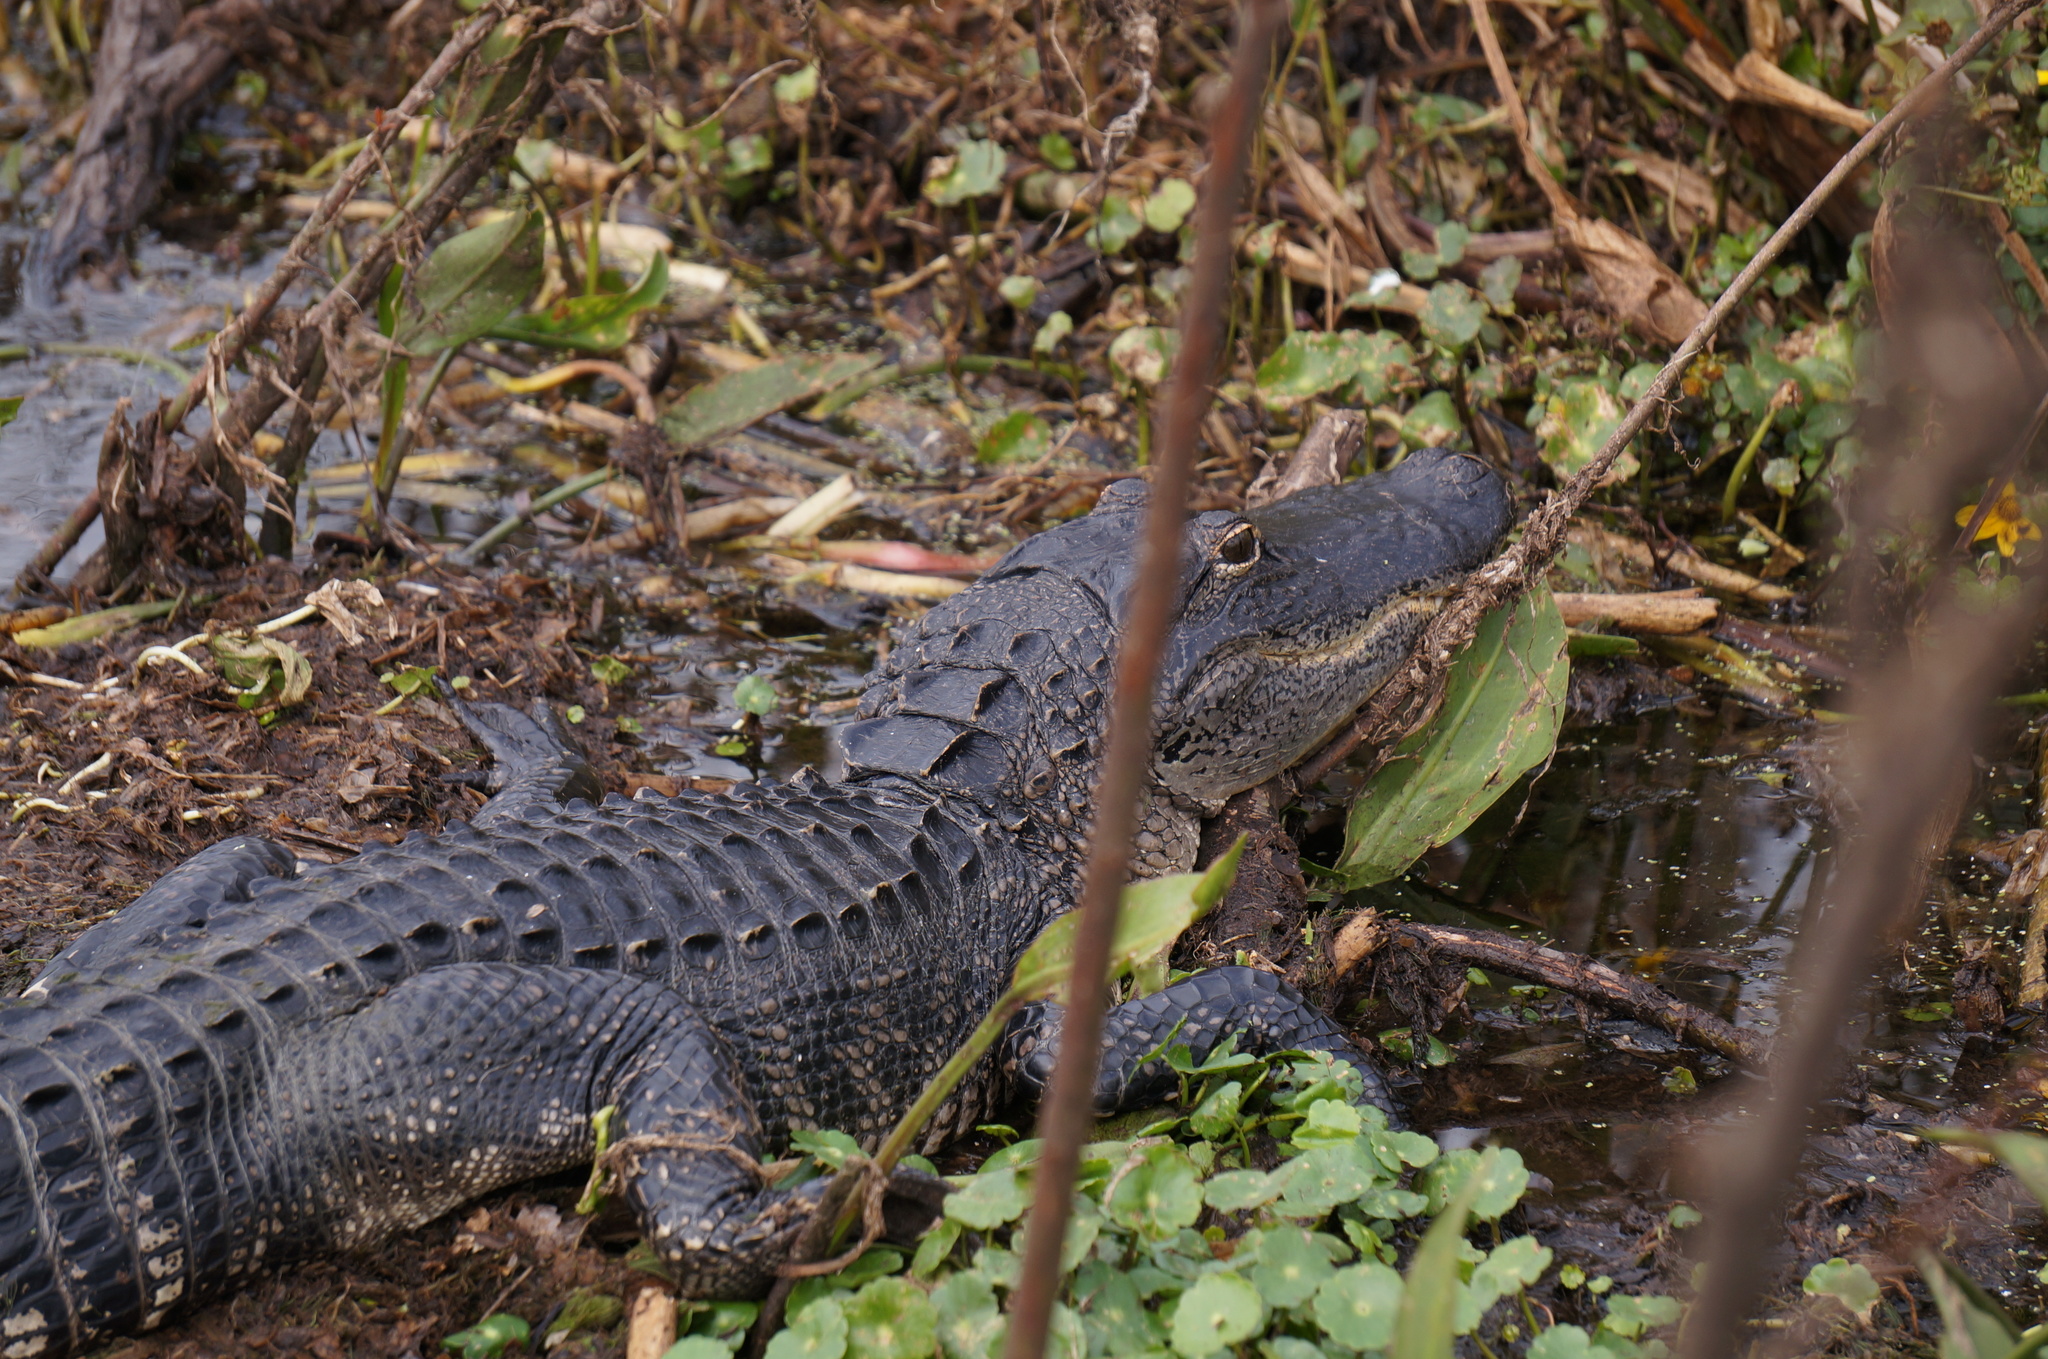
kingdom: Animalia
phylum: Chordata
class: Crocodylia
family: Alligatoridae
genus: Alligator
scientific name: Alligator mississippiensis
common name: American alligator
